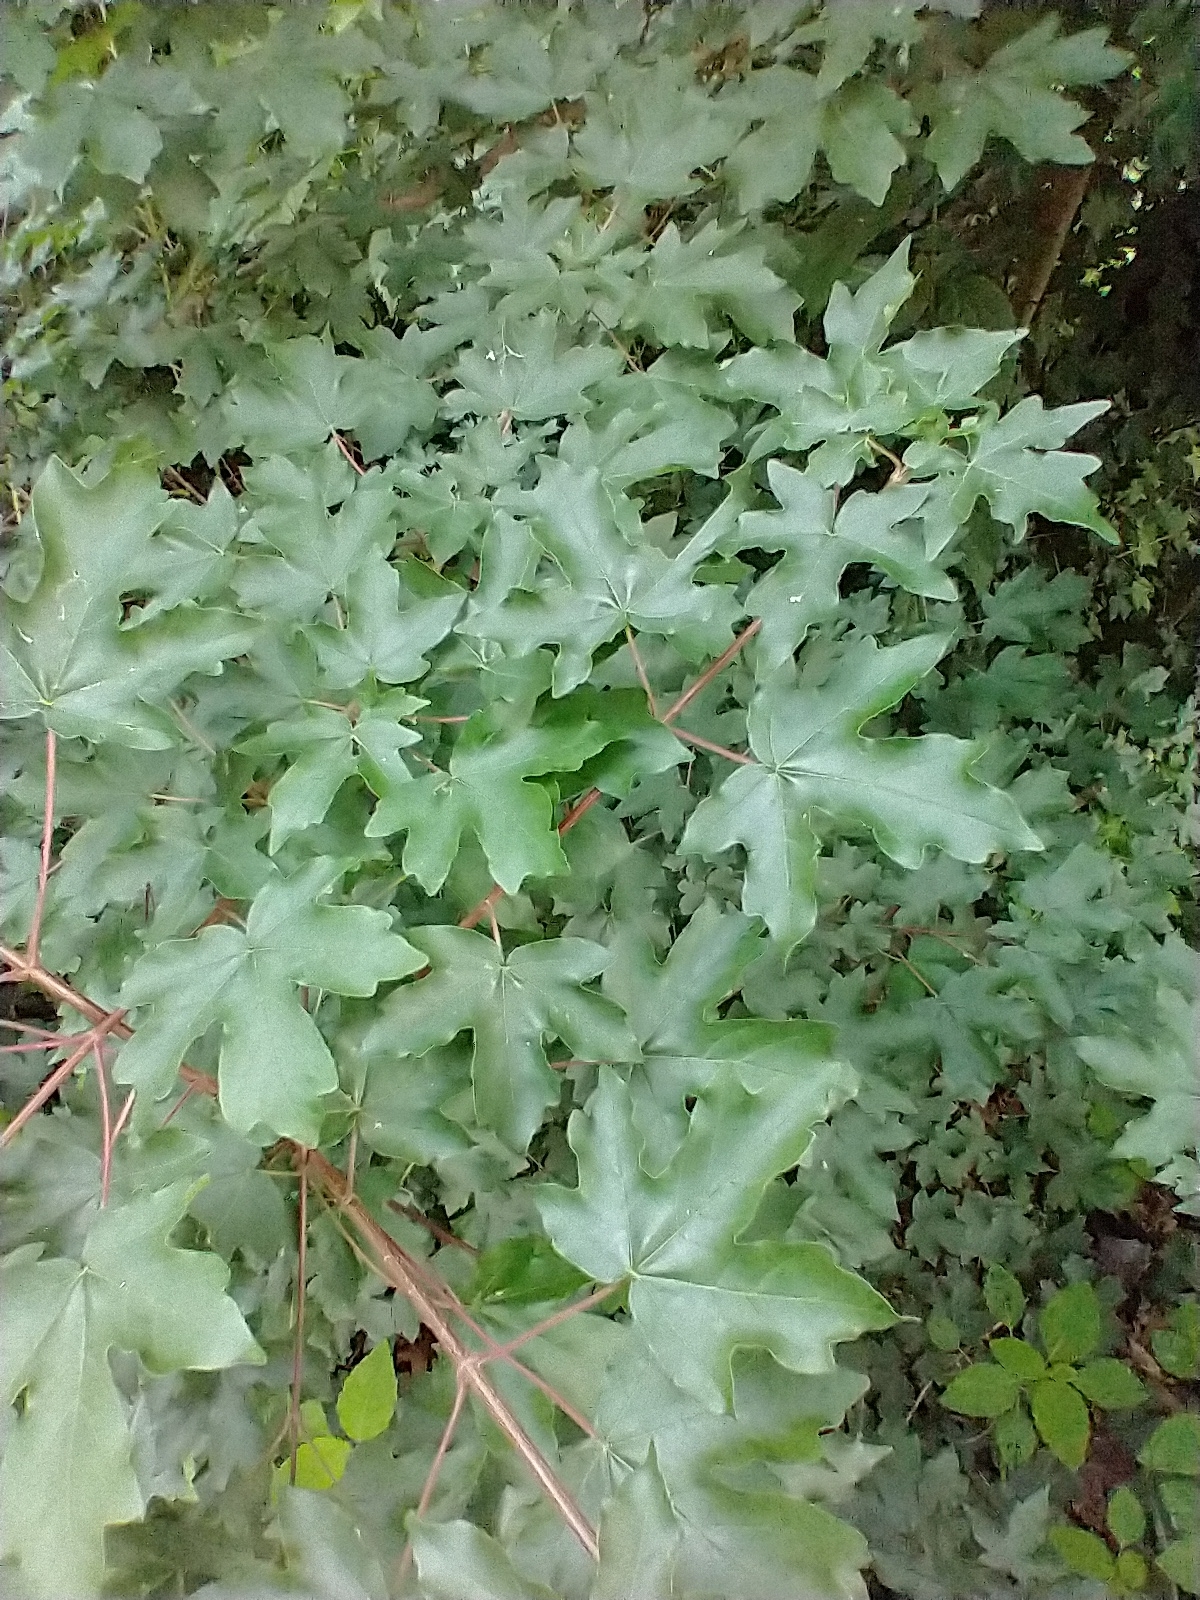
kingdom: Plantae
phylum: Tracheophyta
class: Magnoliopsida
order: Sapindales
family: Sapindaceae
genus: Acer
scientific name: Acer campestre
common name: Field maple
